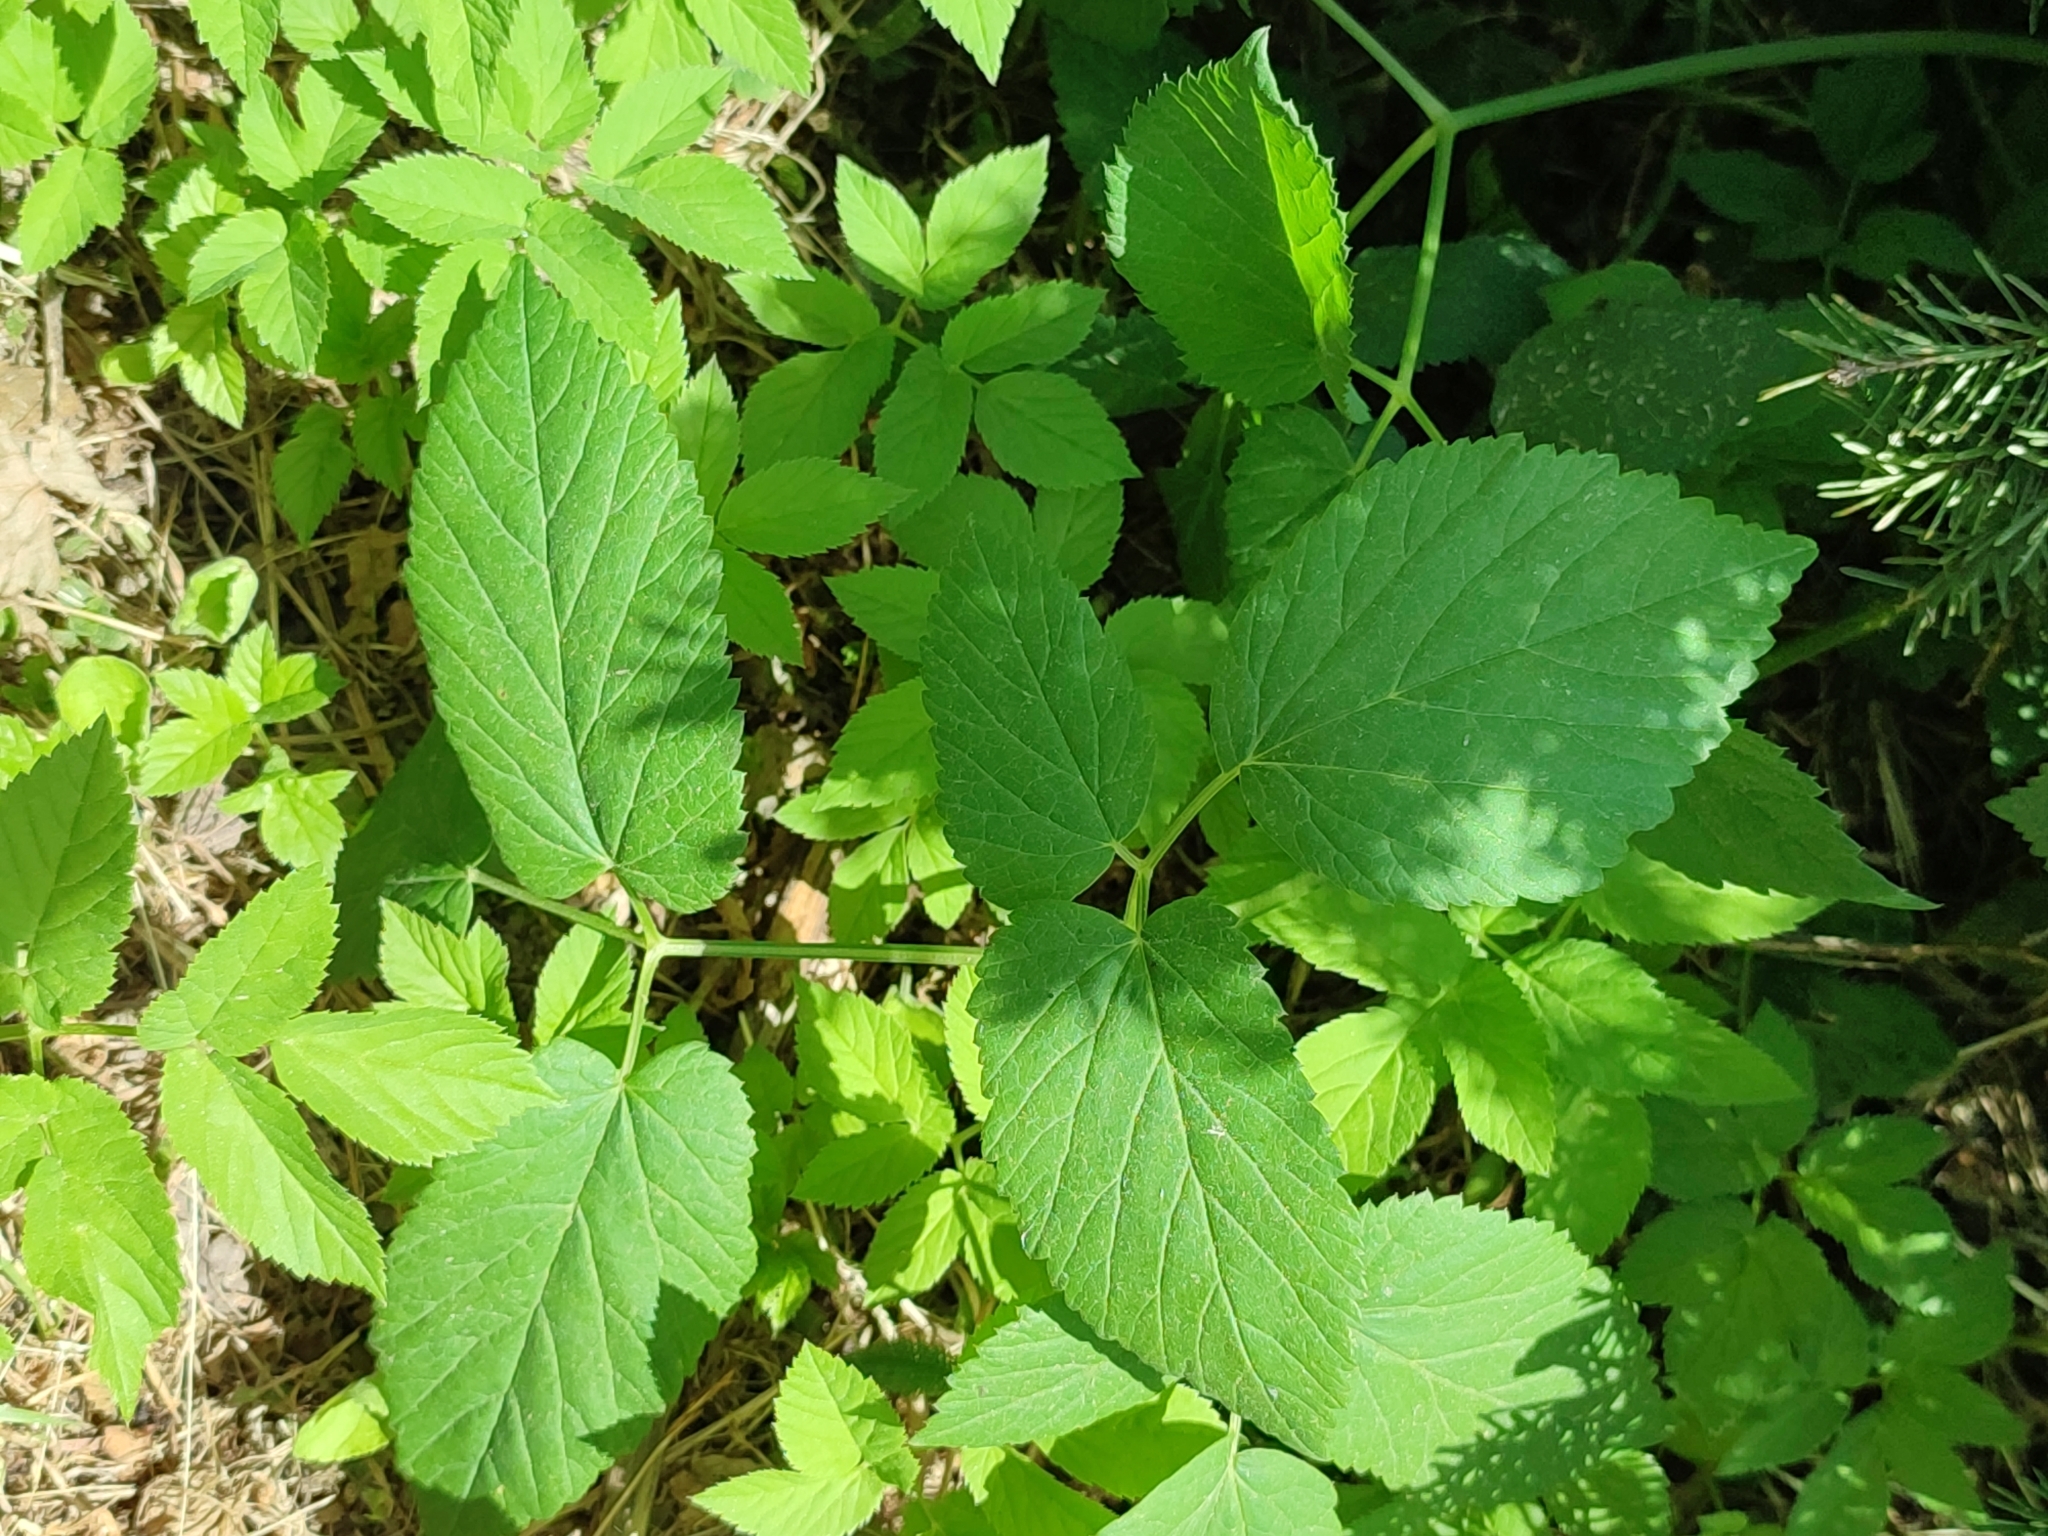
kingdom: Plantae
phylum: Tracheophyta
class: Magnoliopsida
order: Apiales
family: Apiaceae
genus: Aegopodium
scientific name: Aegopodium podagraria
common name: Ground-elder
